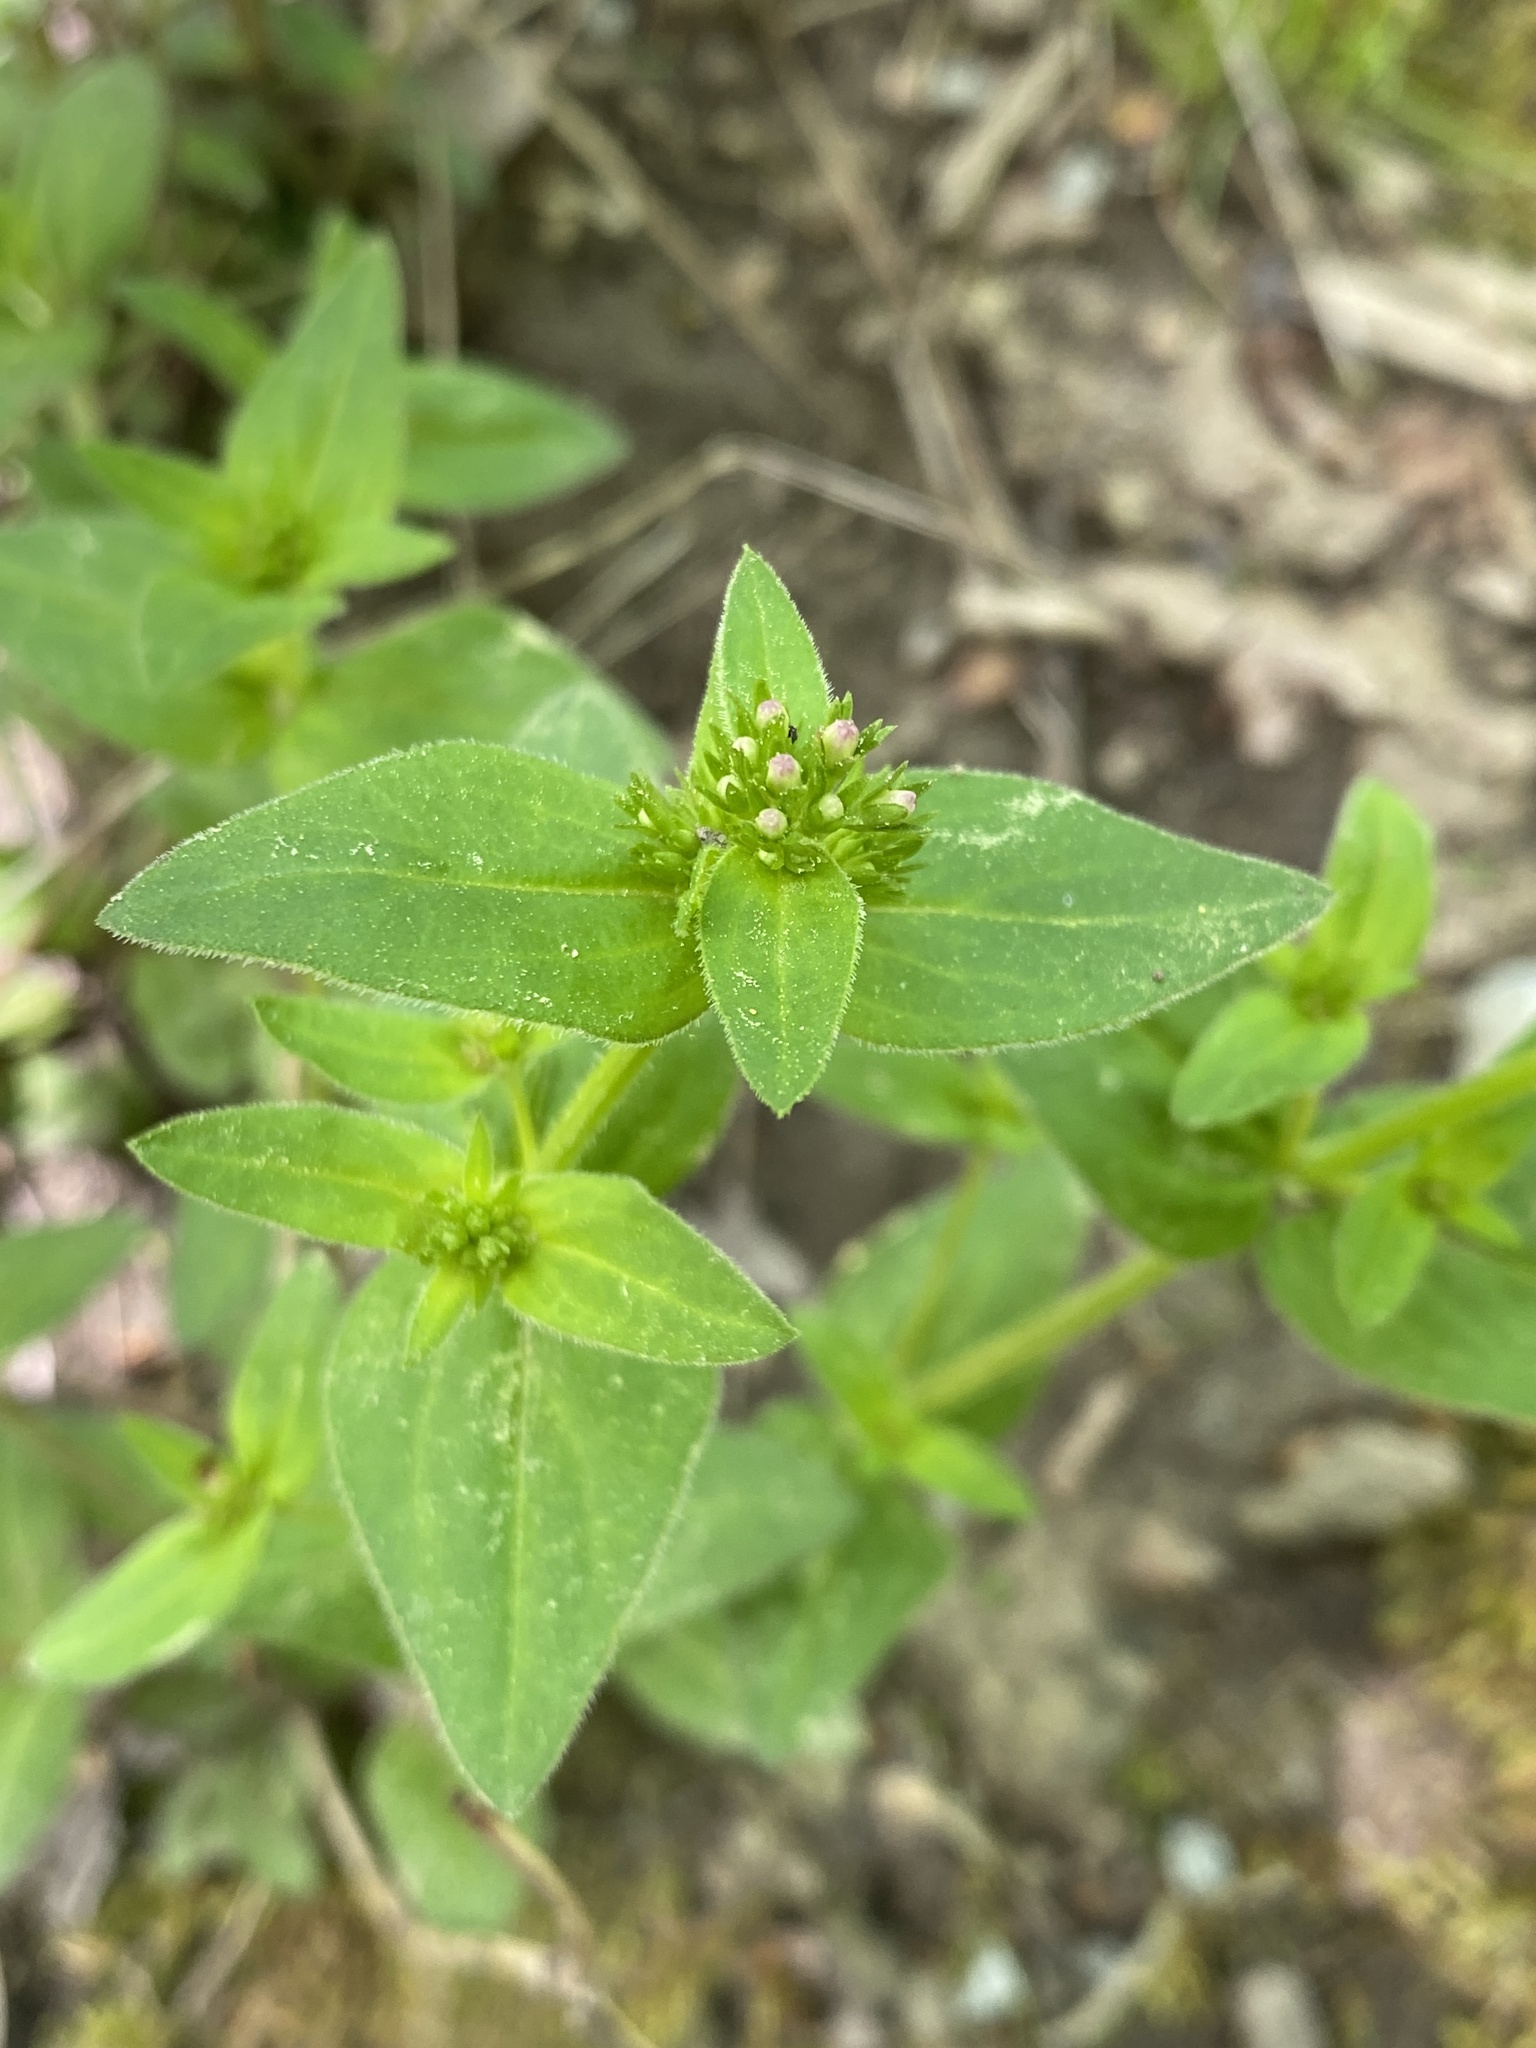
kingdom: Plantae
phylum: Tracheophyta
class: Magnoliopsida
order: Gentianales
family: Rubiaceae
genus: Houstonia
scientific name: Houstonia purpurea
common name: Summer bluet
